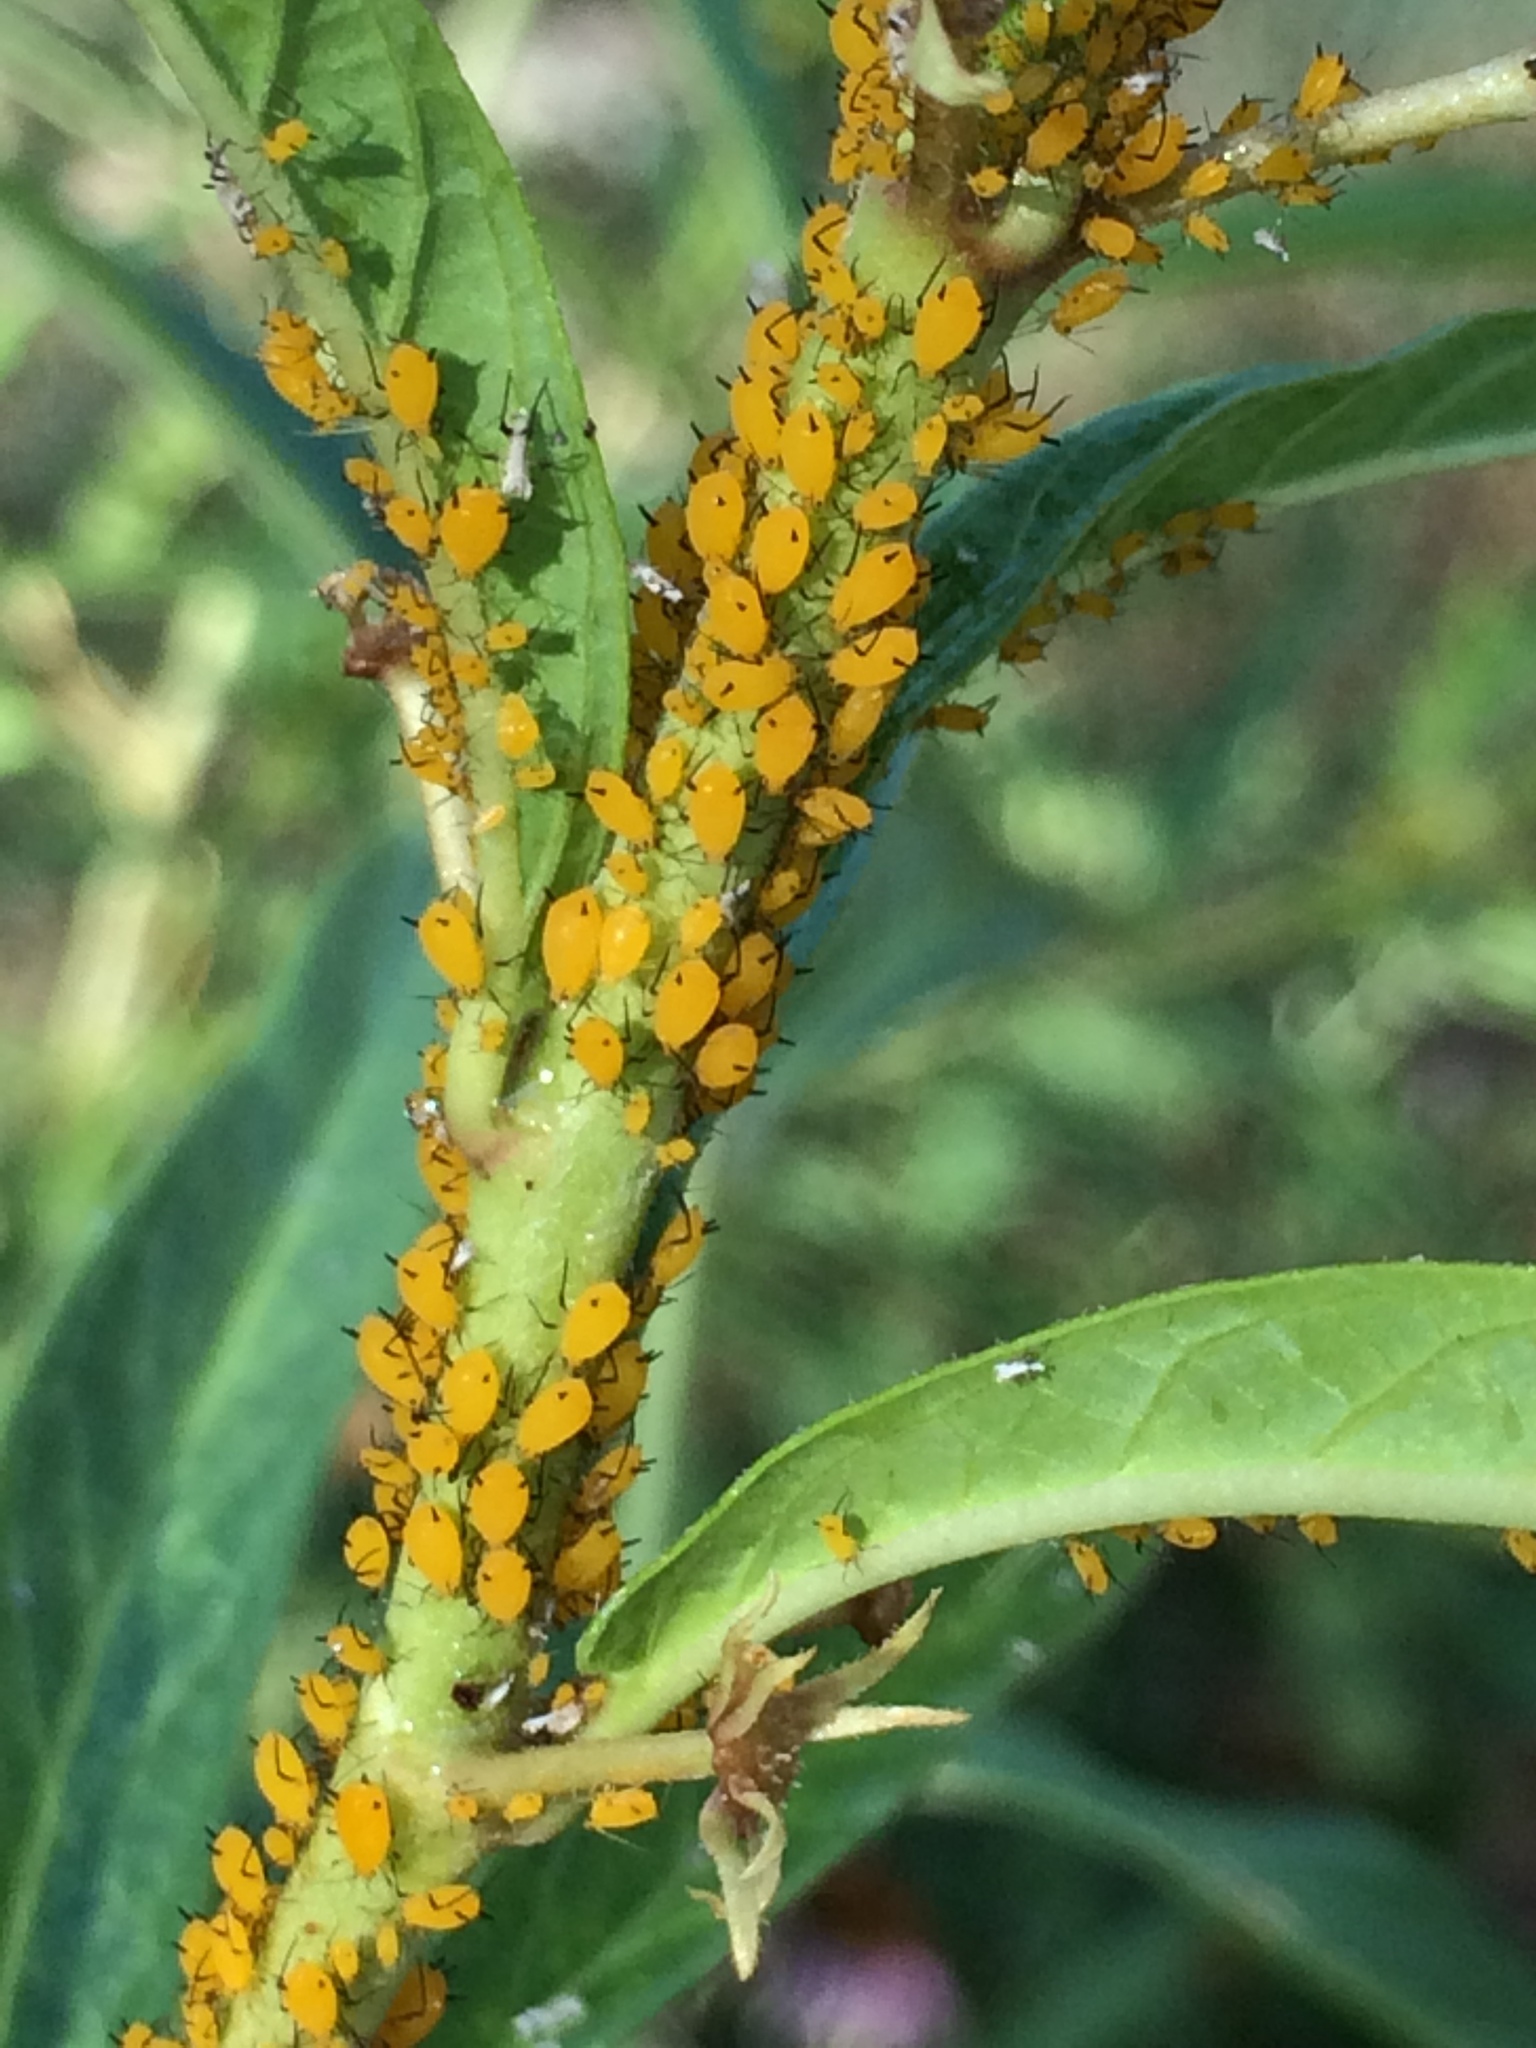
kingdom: Animalia
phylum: Arthropoda
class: Insecta
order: Hemiptera
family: Aphididae
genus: Aphis
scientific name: Aphis nerii
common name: Oleander aphid
